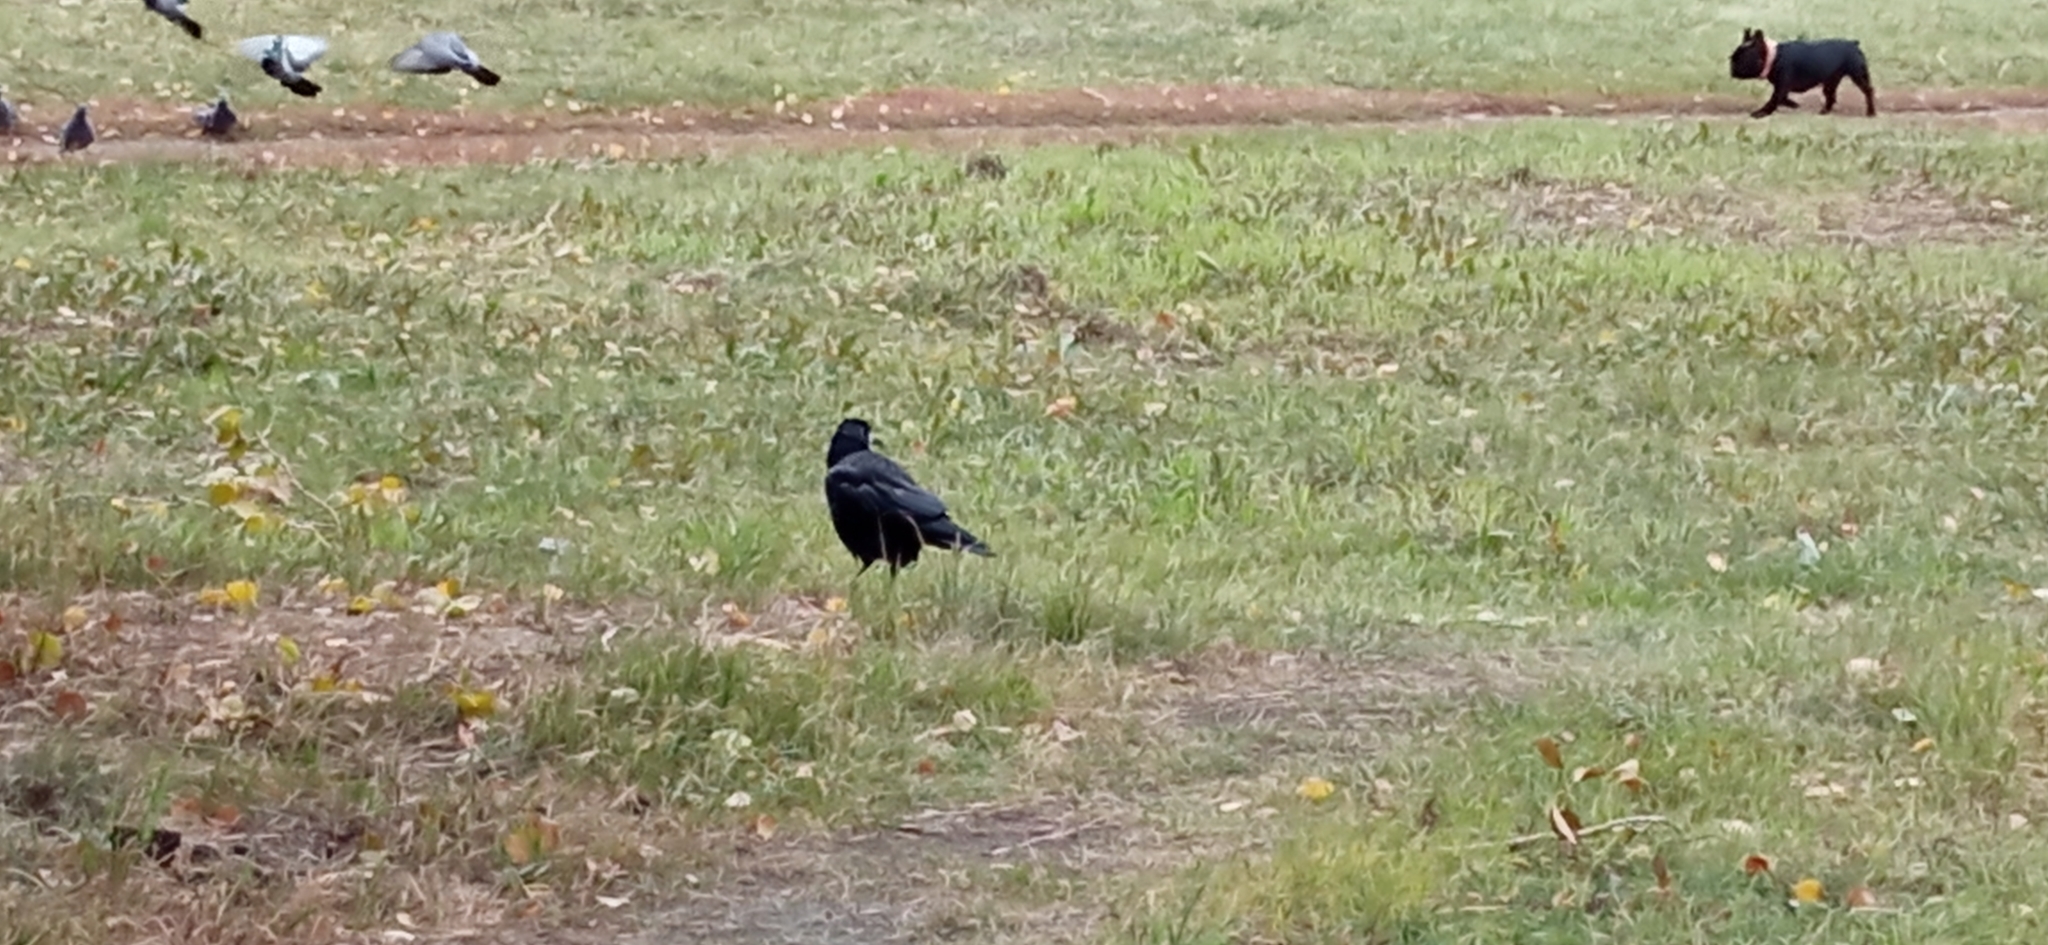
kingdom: Animalia
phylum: Chordata
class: Aves
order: Passeriformes
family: Corvidae
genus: Corvus
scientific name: Corvus frugilegus
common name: Rook
